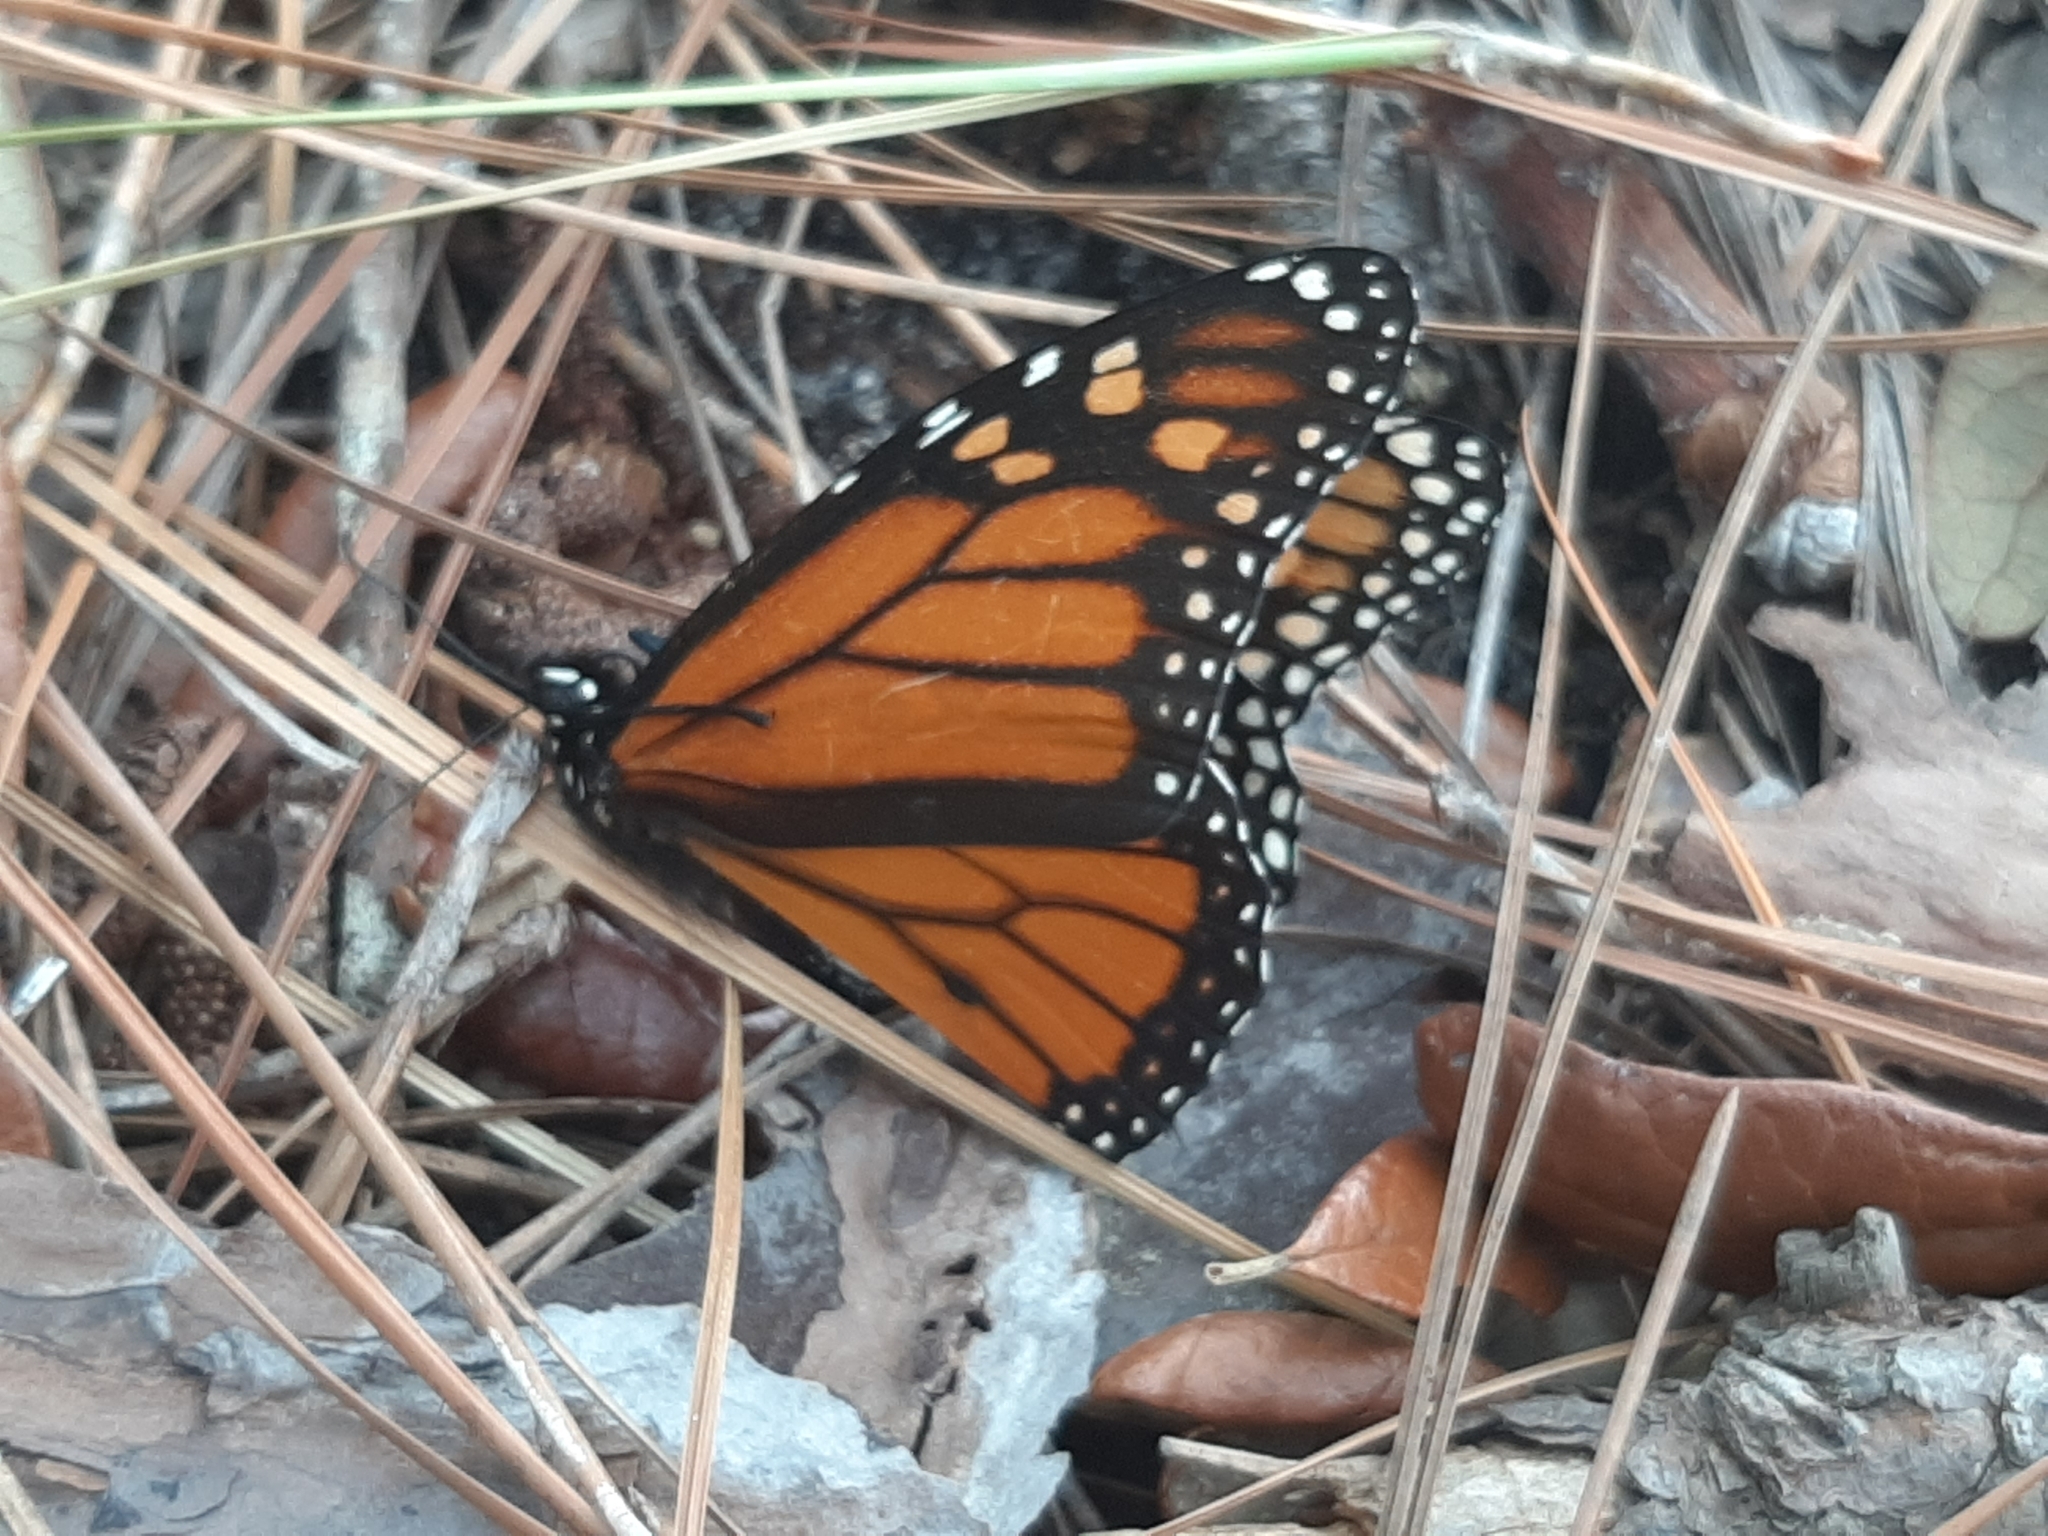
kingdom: Animalia
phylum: Arthropoda
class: Insecta
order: Lepidoptera
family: Nymphalidae
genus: Danaus
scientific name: Danaus plexippus
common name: Monarch
